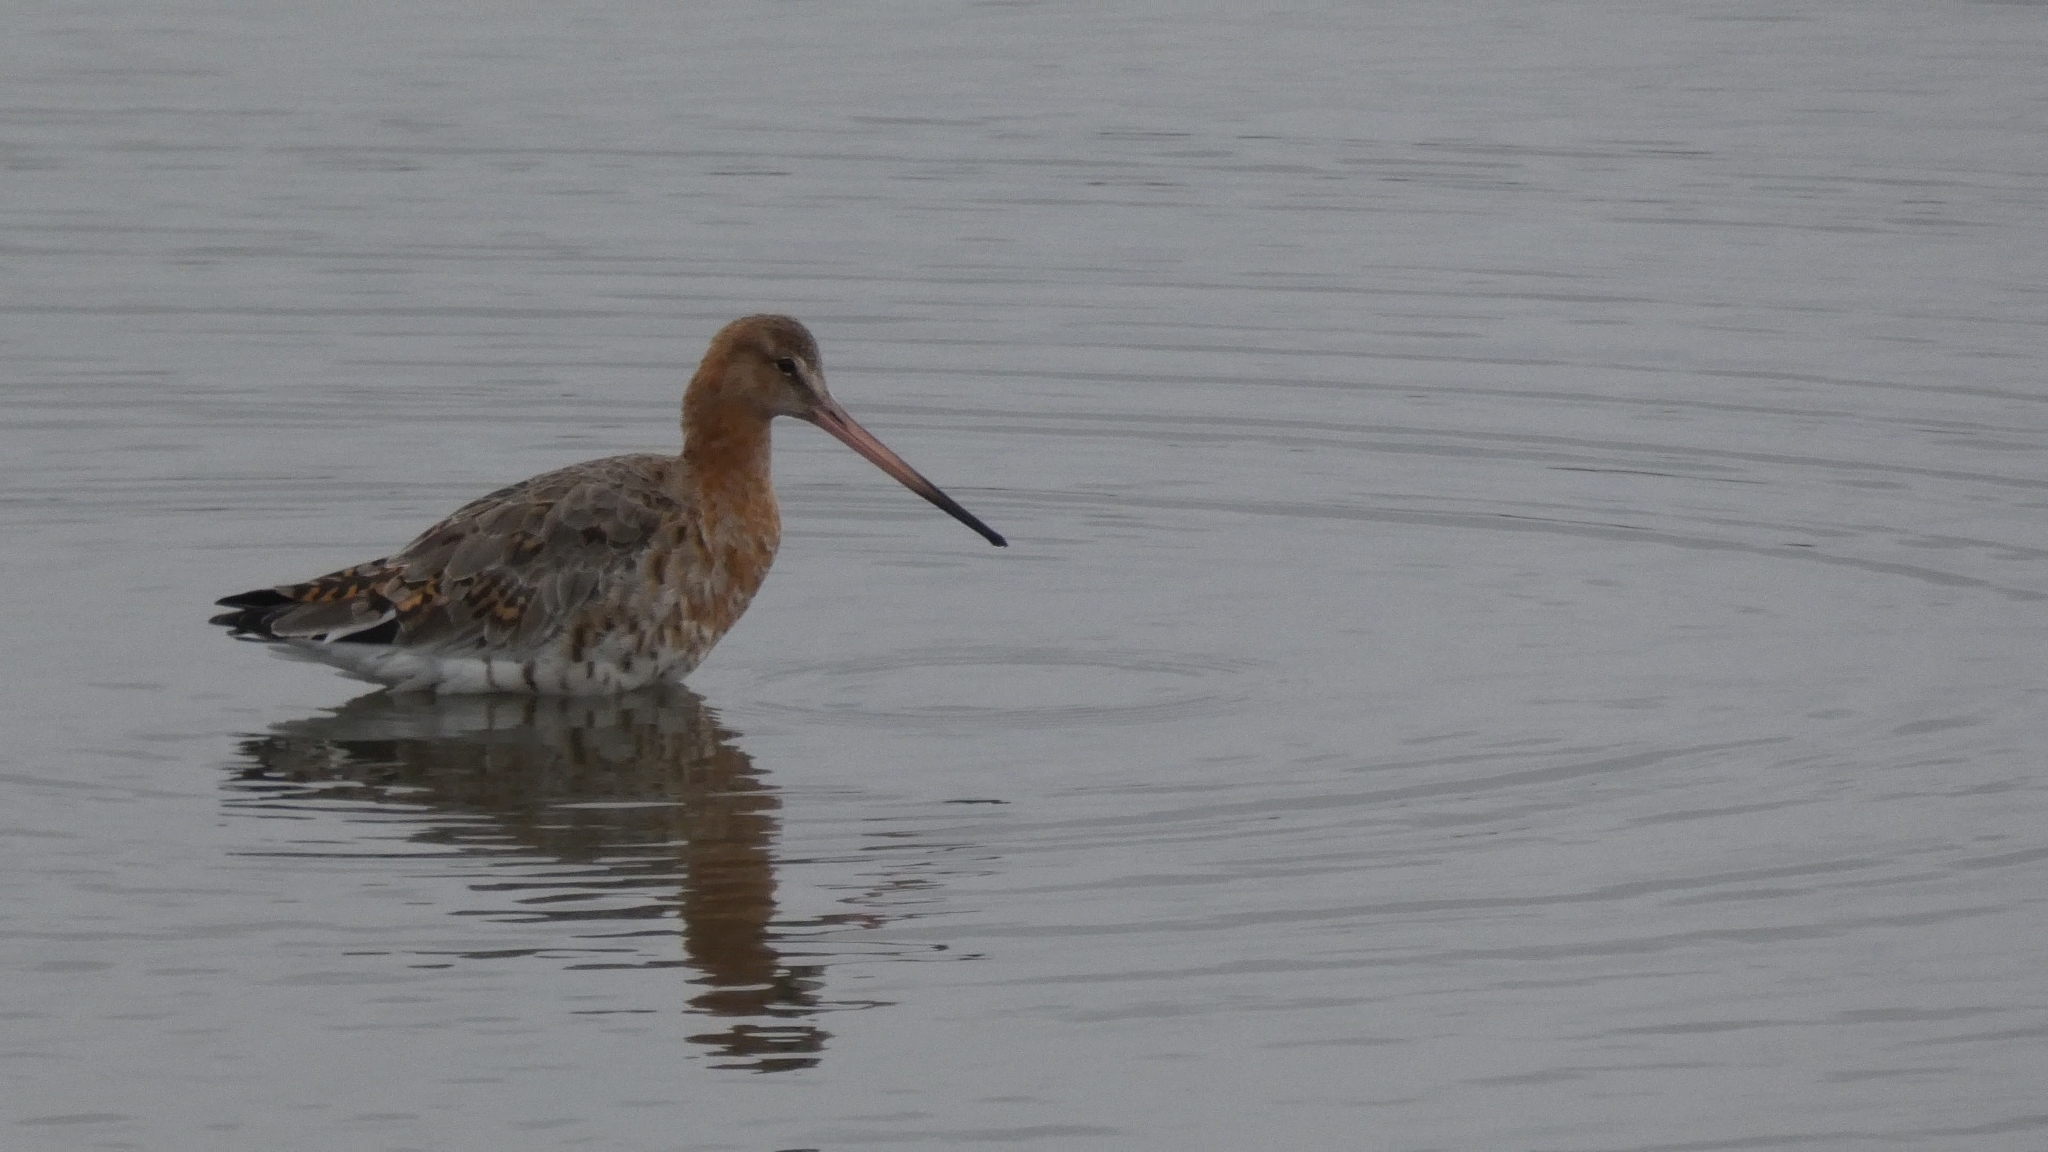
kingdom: Animalia
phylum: Chordata
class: Aves
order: Charadriiformes
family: Scolopacidae
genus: Limosa
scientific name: Limosa limosa
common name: Black-tailed godwit
